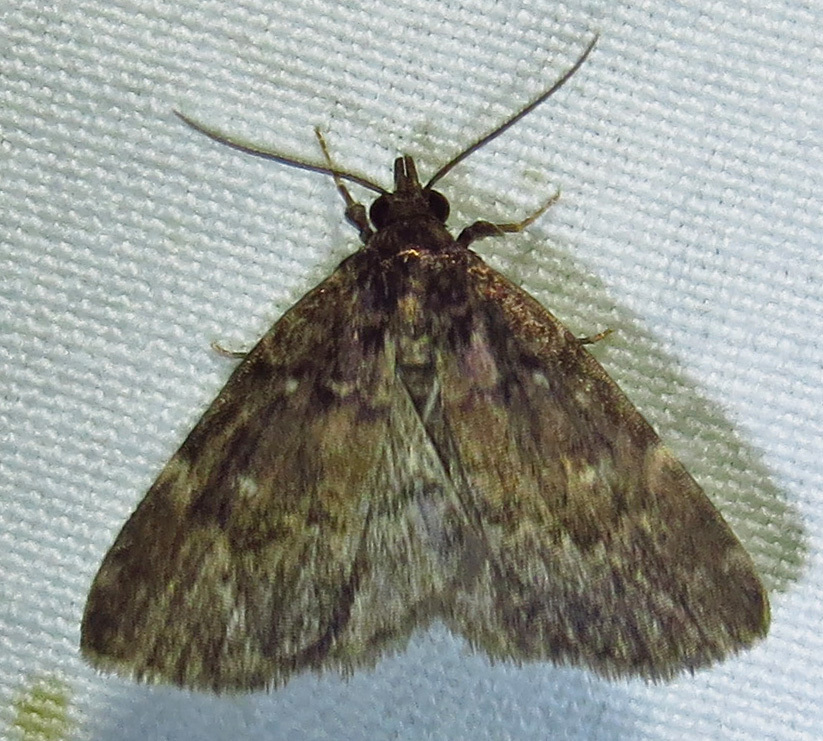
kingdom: Animalia
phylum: Arthropoda
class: Insecta
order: Lepidoptera
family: Erebidae
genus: Idia
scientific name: Idia julia
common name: Julia's idia moth
